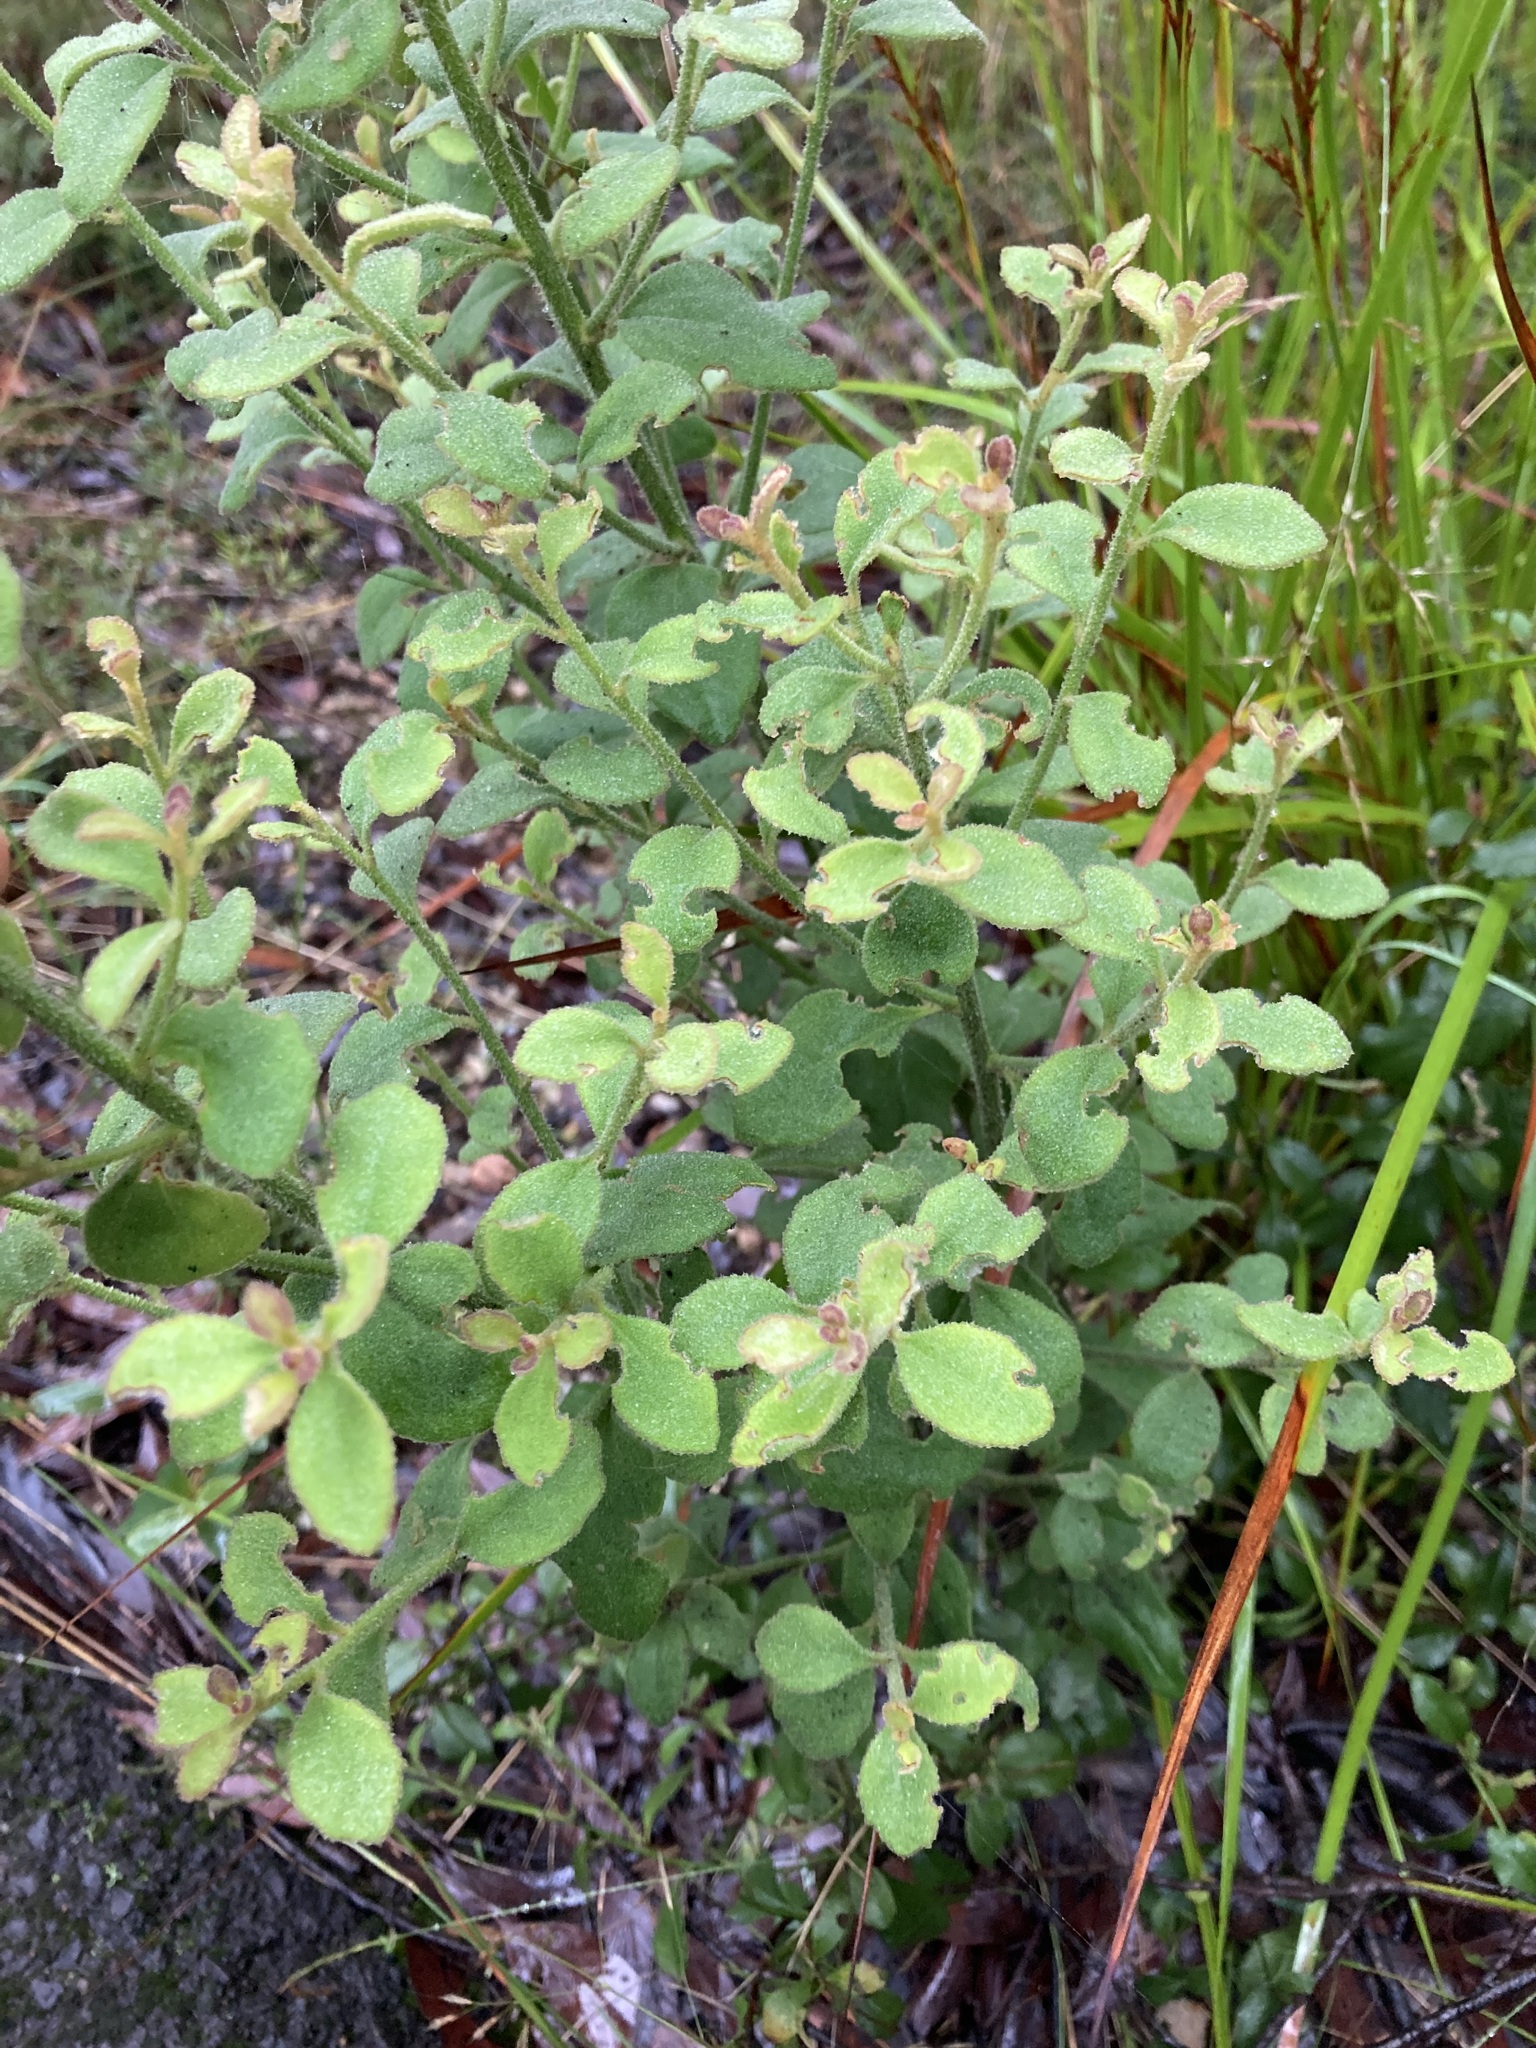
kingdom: Plantae
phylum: Tracheophyta
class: Magnoliopsida
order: Asterales
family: Goodeniaceae
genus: Dampiera
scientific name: Dampiera purpurea
